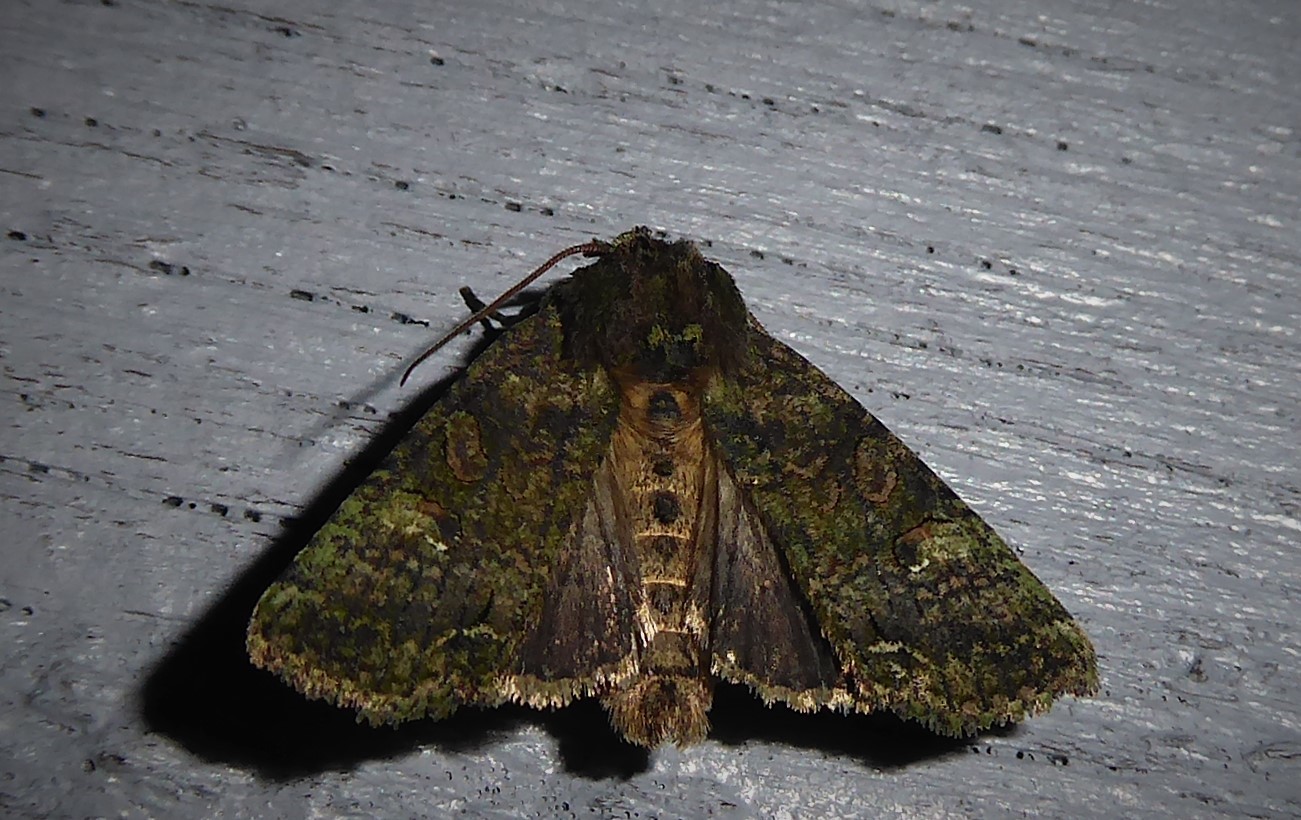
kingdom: Animalia
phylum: Arthropoda
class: Insecta
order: Lepidoptera
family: Noctuidae
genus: Meterana
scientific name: Meterana levis
